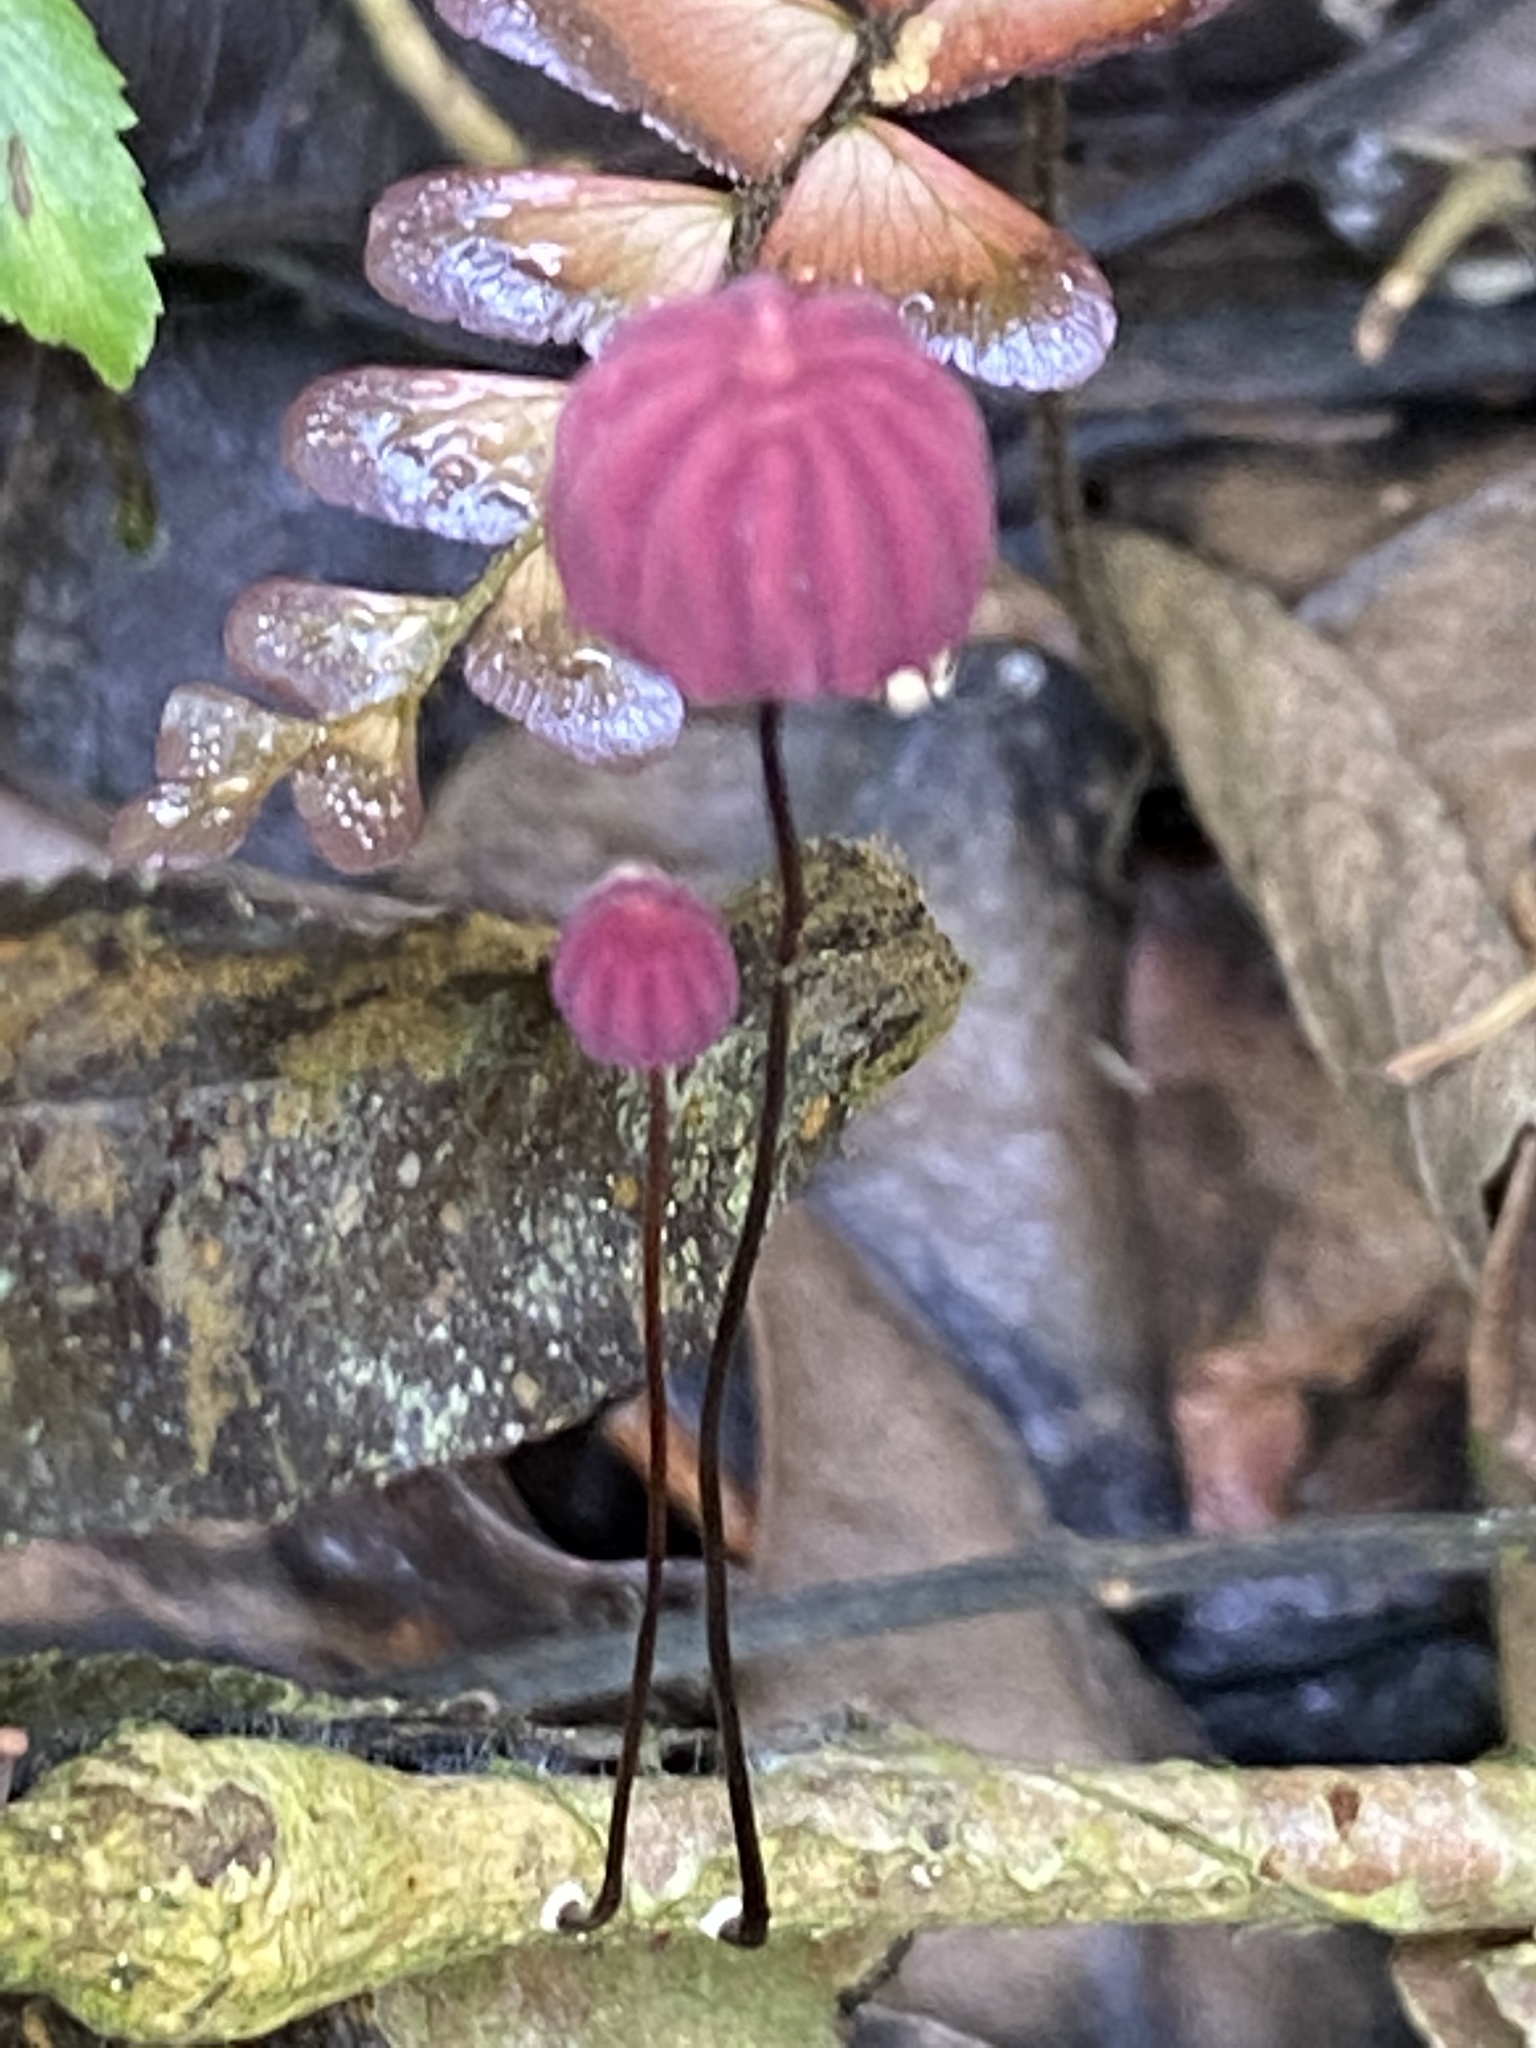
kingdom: Fungi
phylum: Basidiomycota
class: Agaricomycetes
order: Agaricales
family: Marasmiaceae
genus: Marasmius
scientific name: Marasmius haematocephalus
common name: Purple pinwheel
